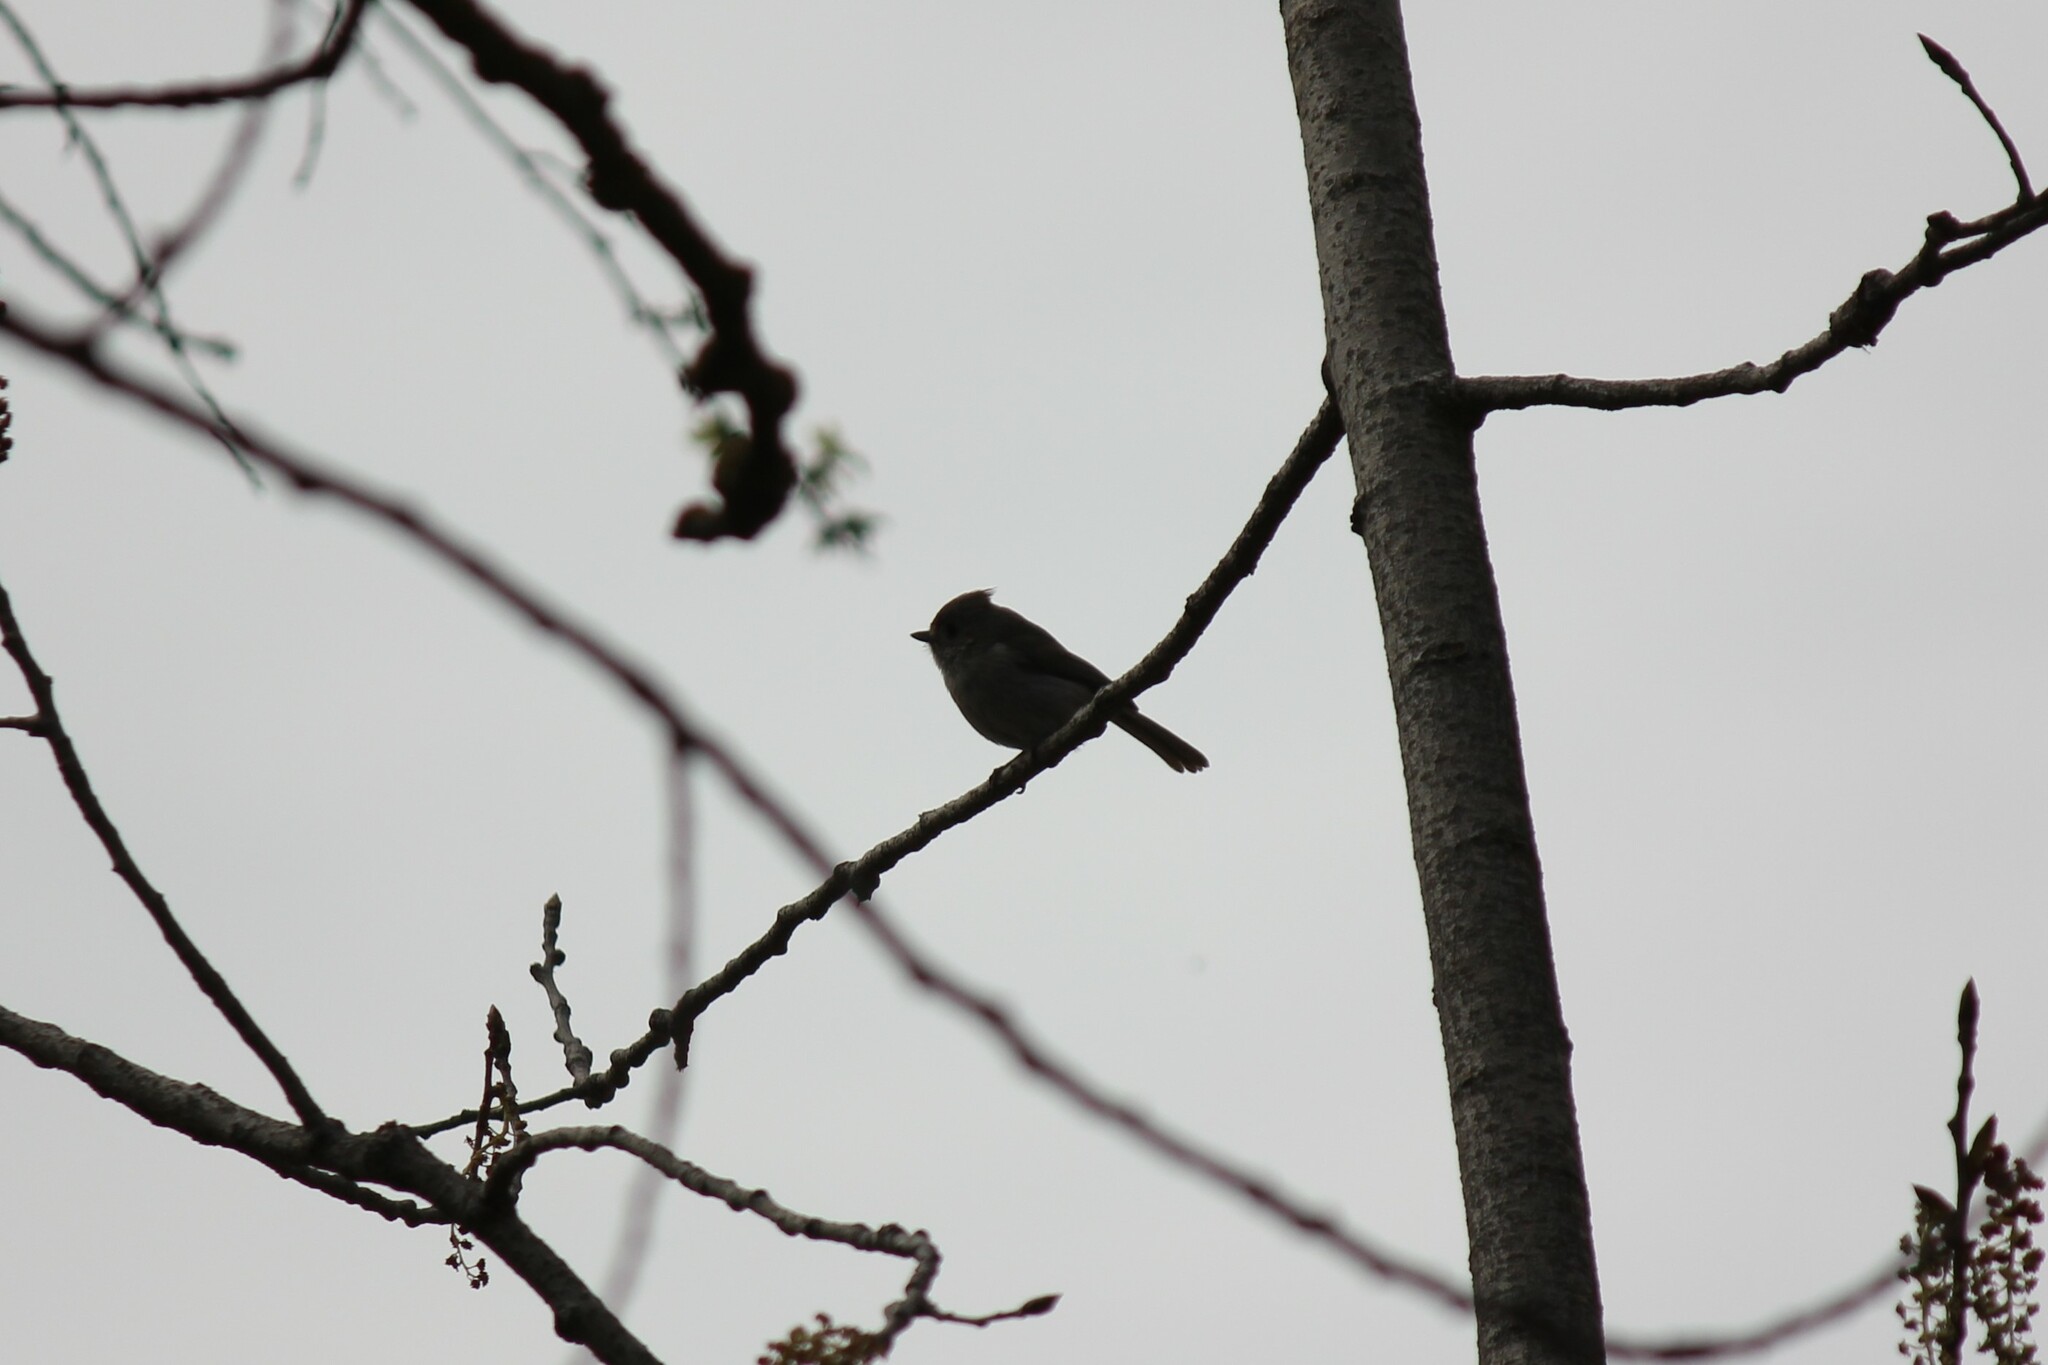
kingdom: Animalia
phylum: Chordata
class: Aves
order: Passeriformes
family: Paridae
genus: Baeolophus
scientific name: Baeolophus inornatus
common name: Oak titmouse
